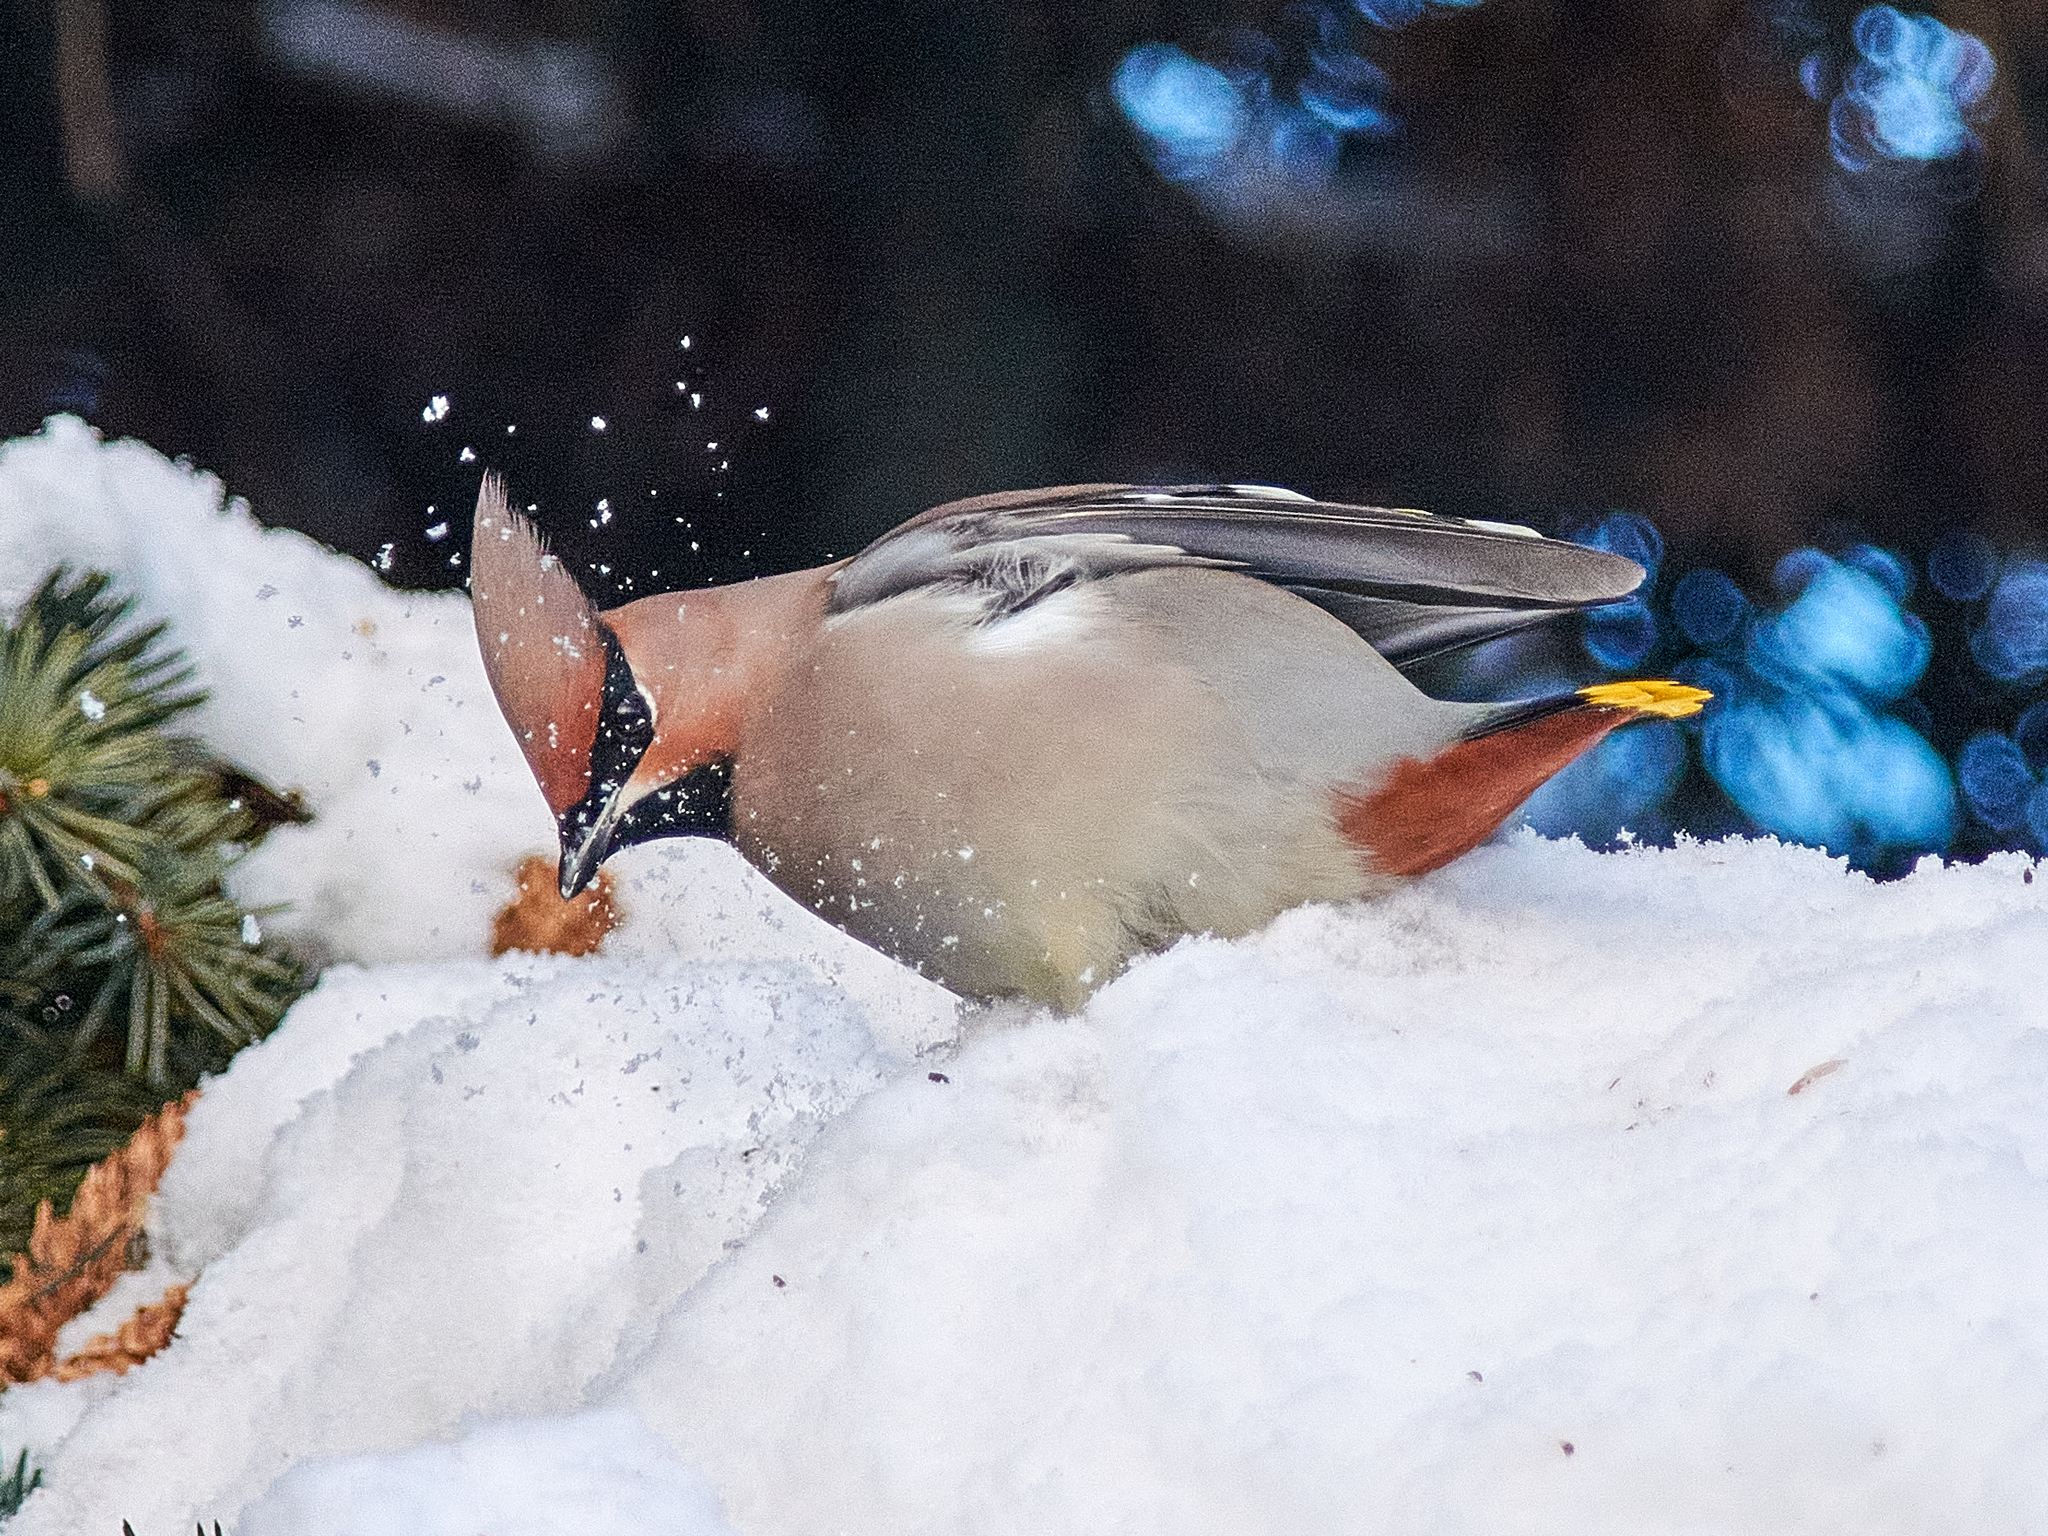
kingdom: Animalia
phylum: Chordata
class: Aves
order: Passeriformes
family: Bombycillidae
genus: Bombycilla
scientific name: Bombycilla garrulus
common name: Bohemian waxwing
